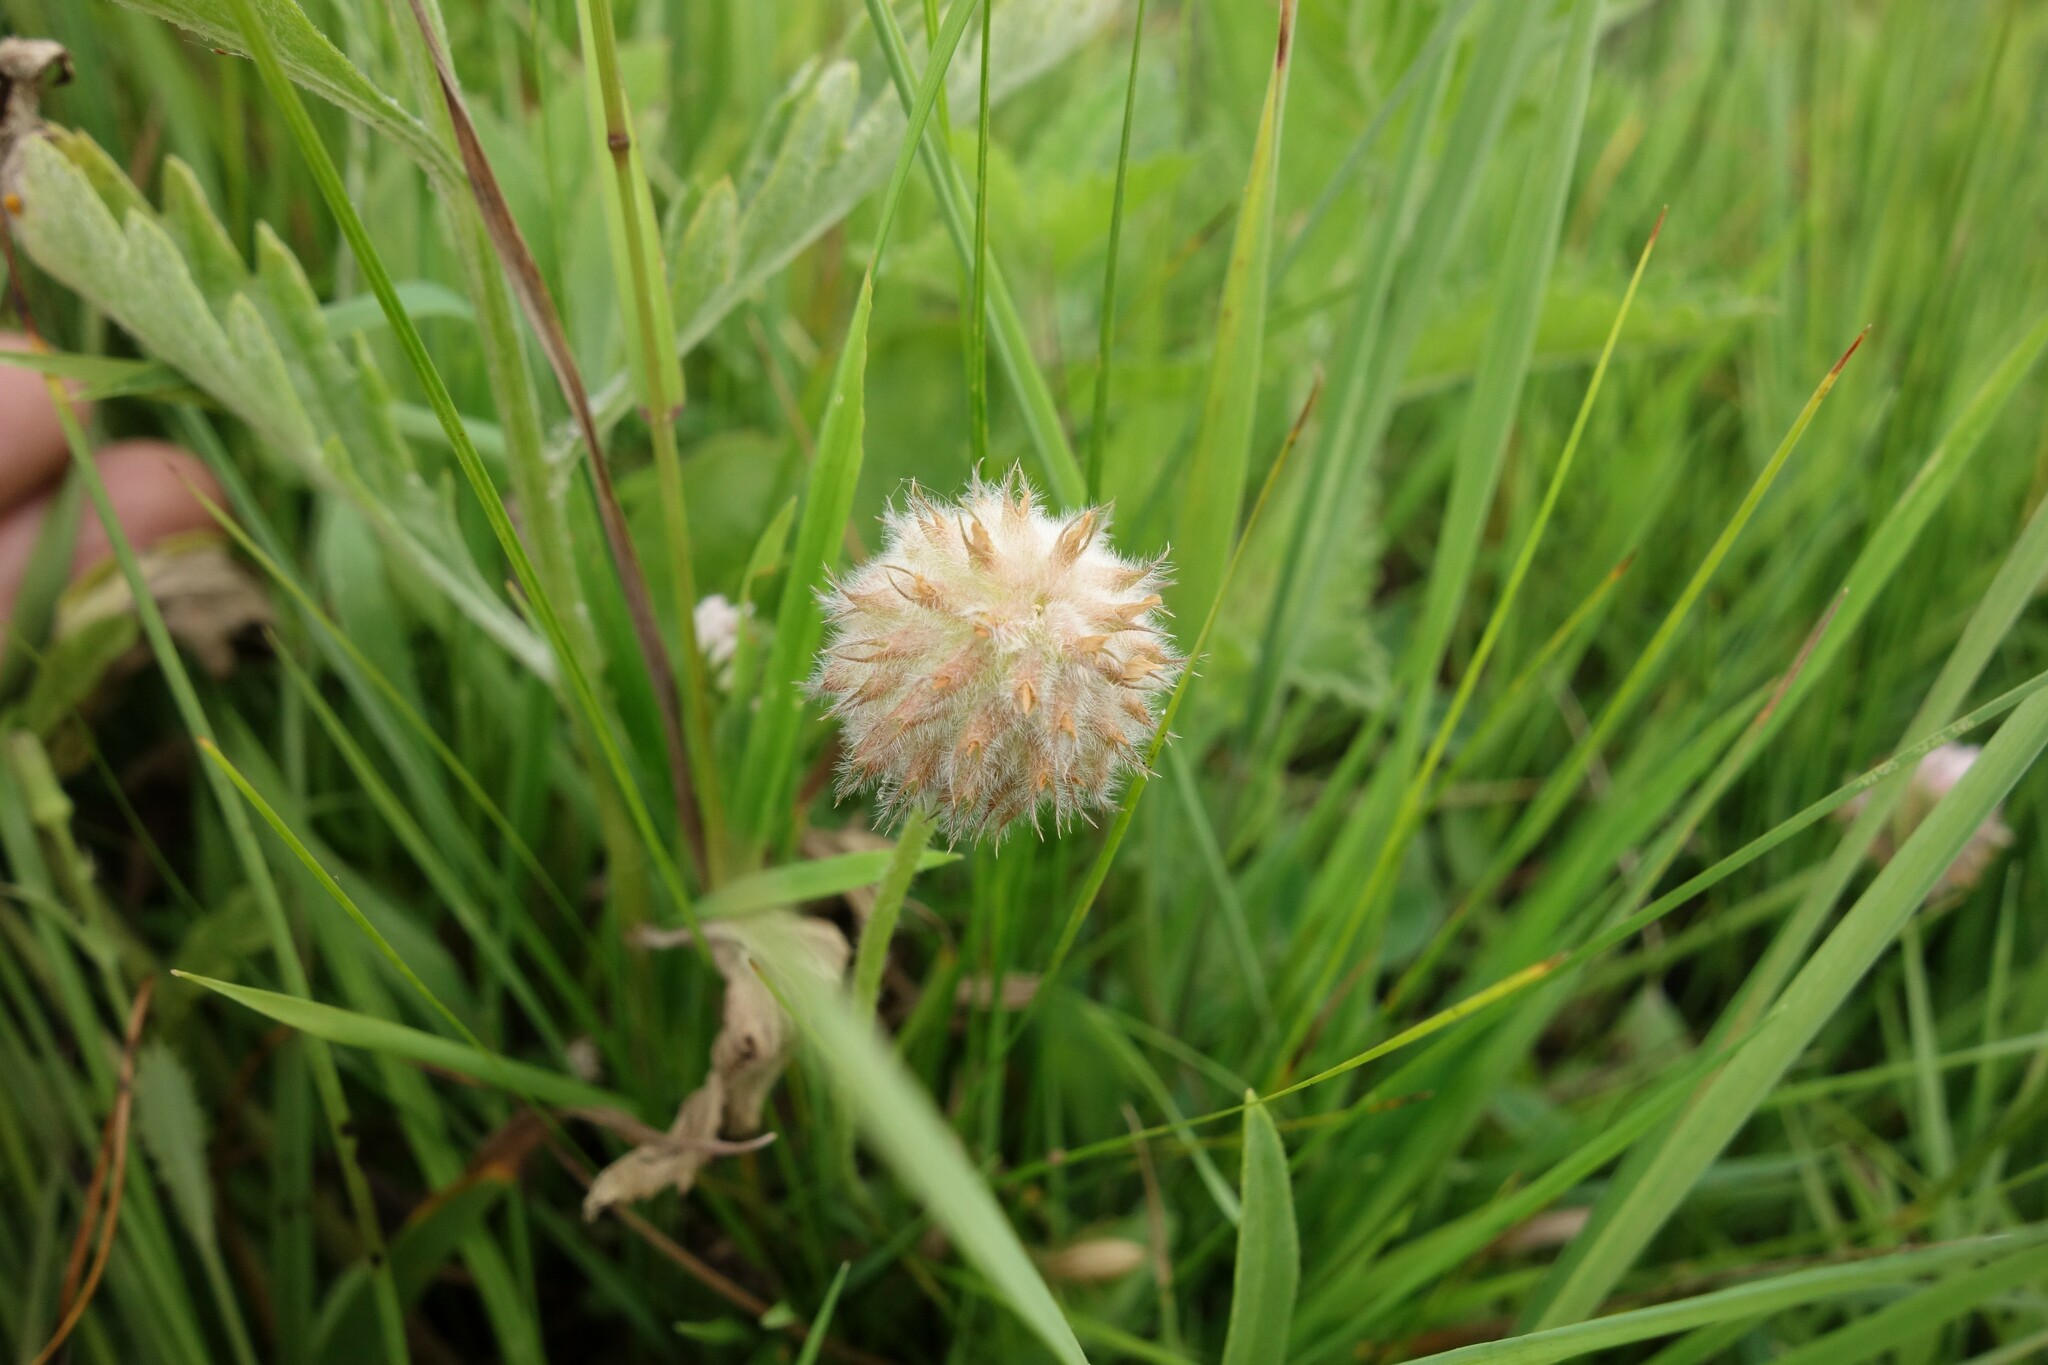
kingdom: Plantae
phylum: Tracheophyta
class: Magnoliopsida
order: Fabales
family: Fabaceae
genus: Trifolium
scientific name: Trifolium fragiferum
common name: Strawberry clover
